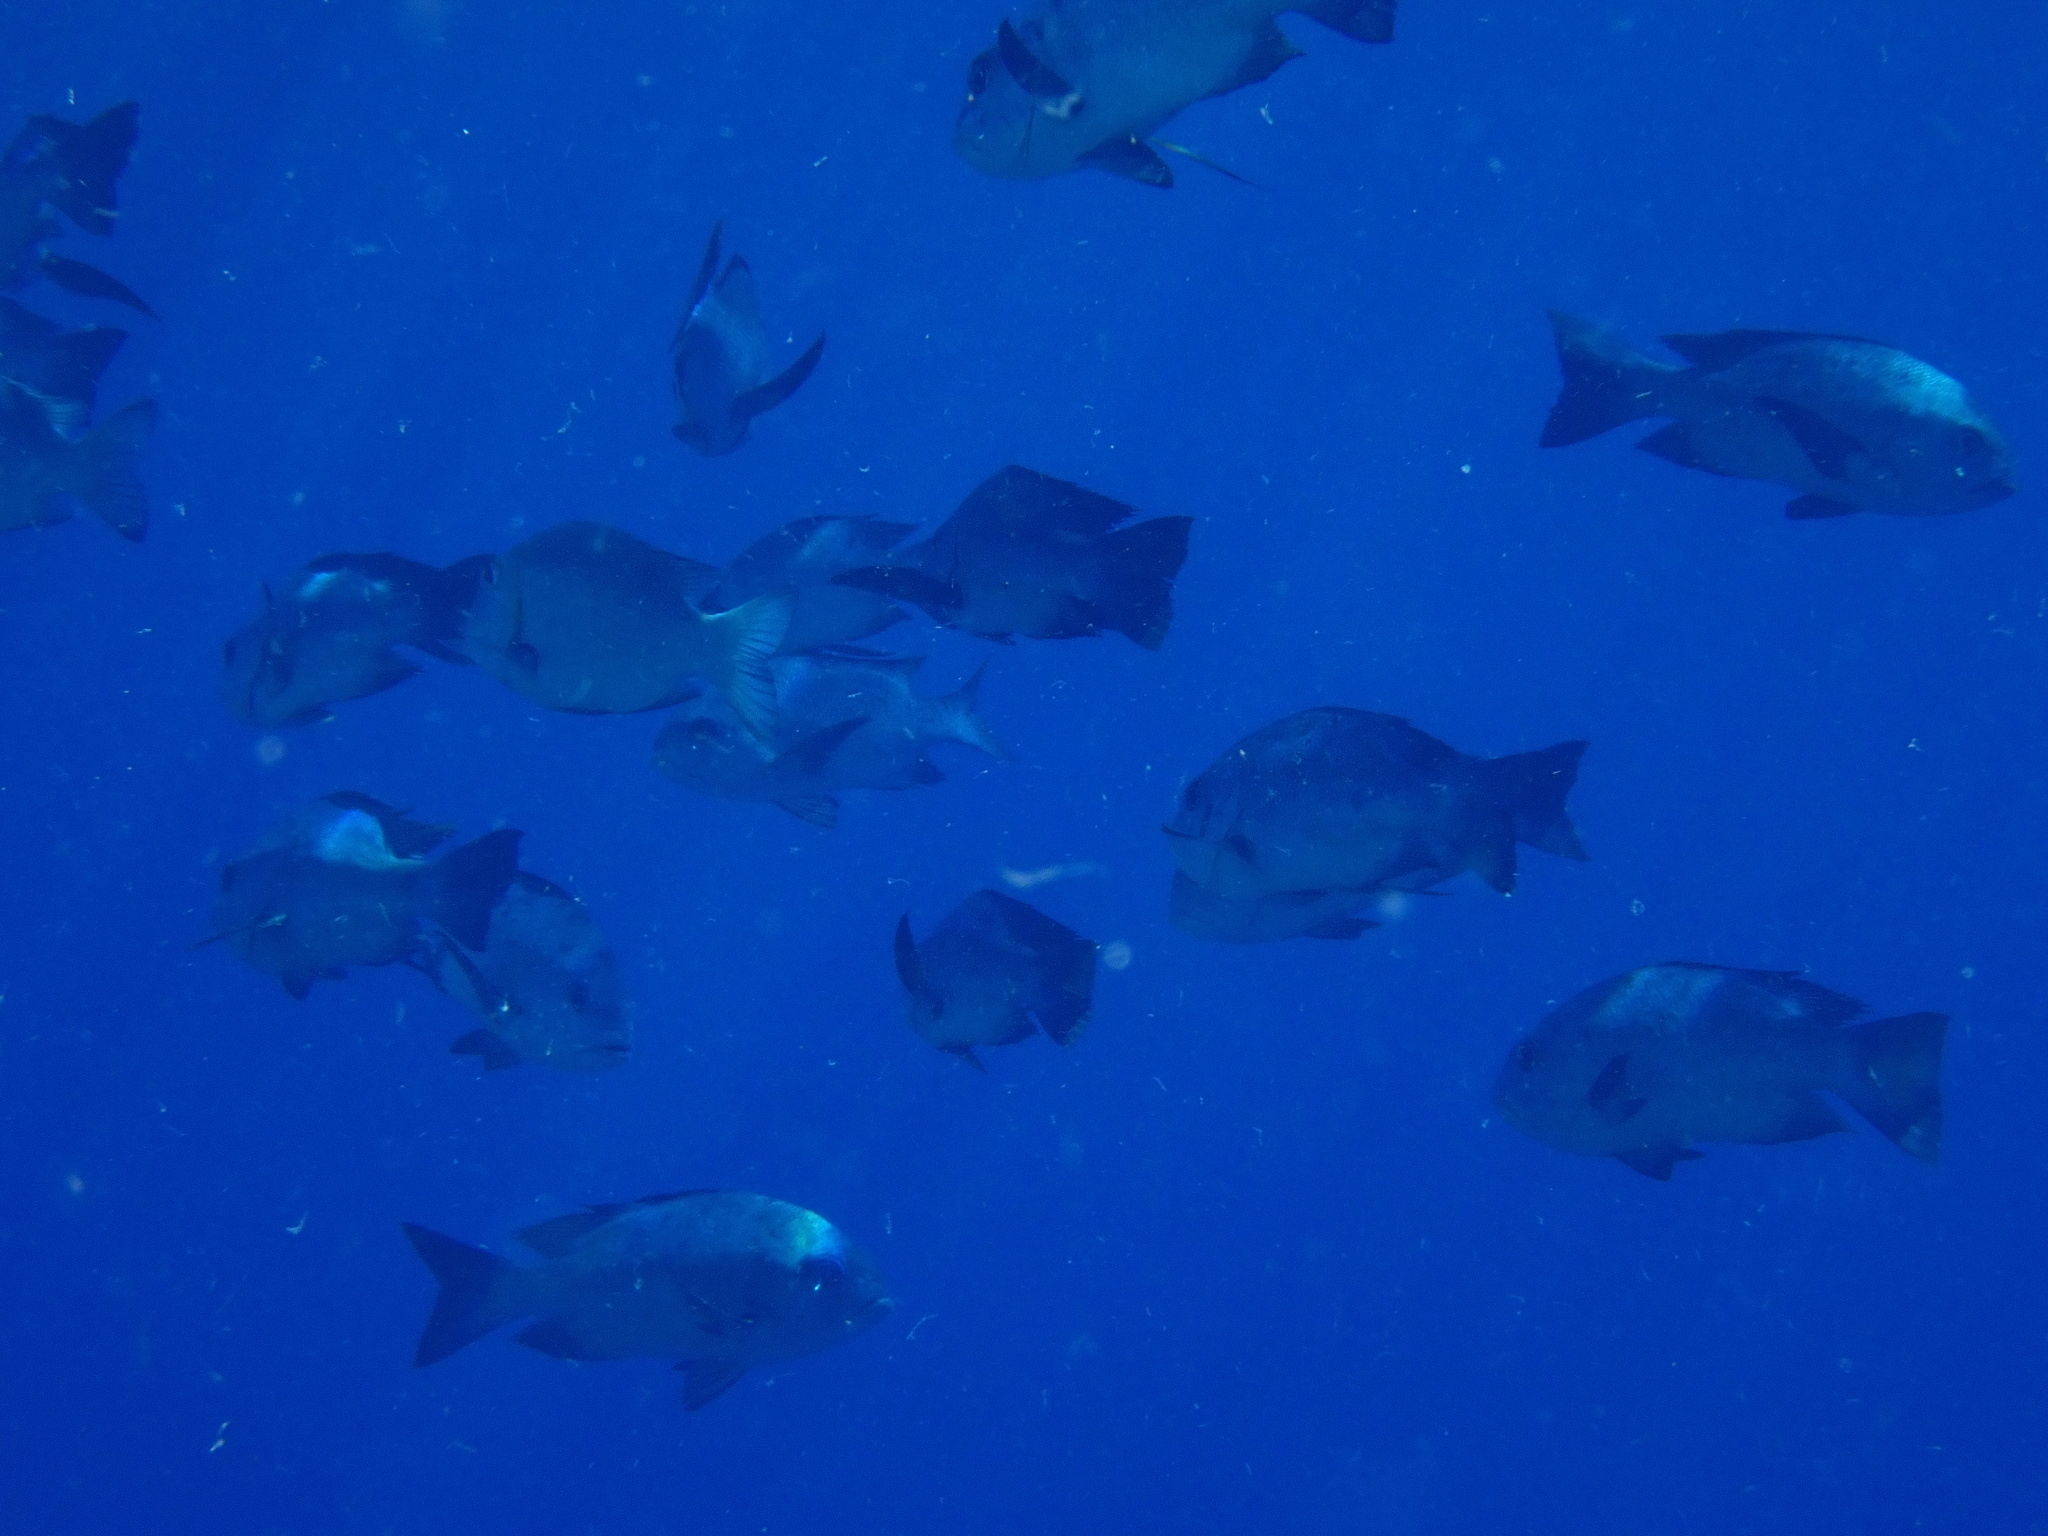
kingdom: Animalia
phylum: Chordata
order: Perciformes
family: Lutjanidae
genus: Macolor
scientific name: Macolor niger
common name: Black snapper
